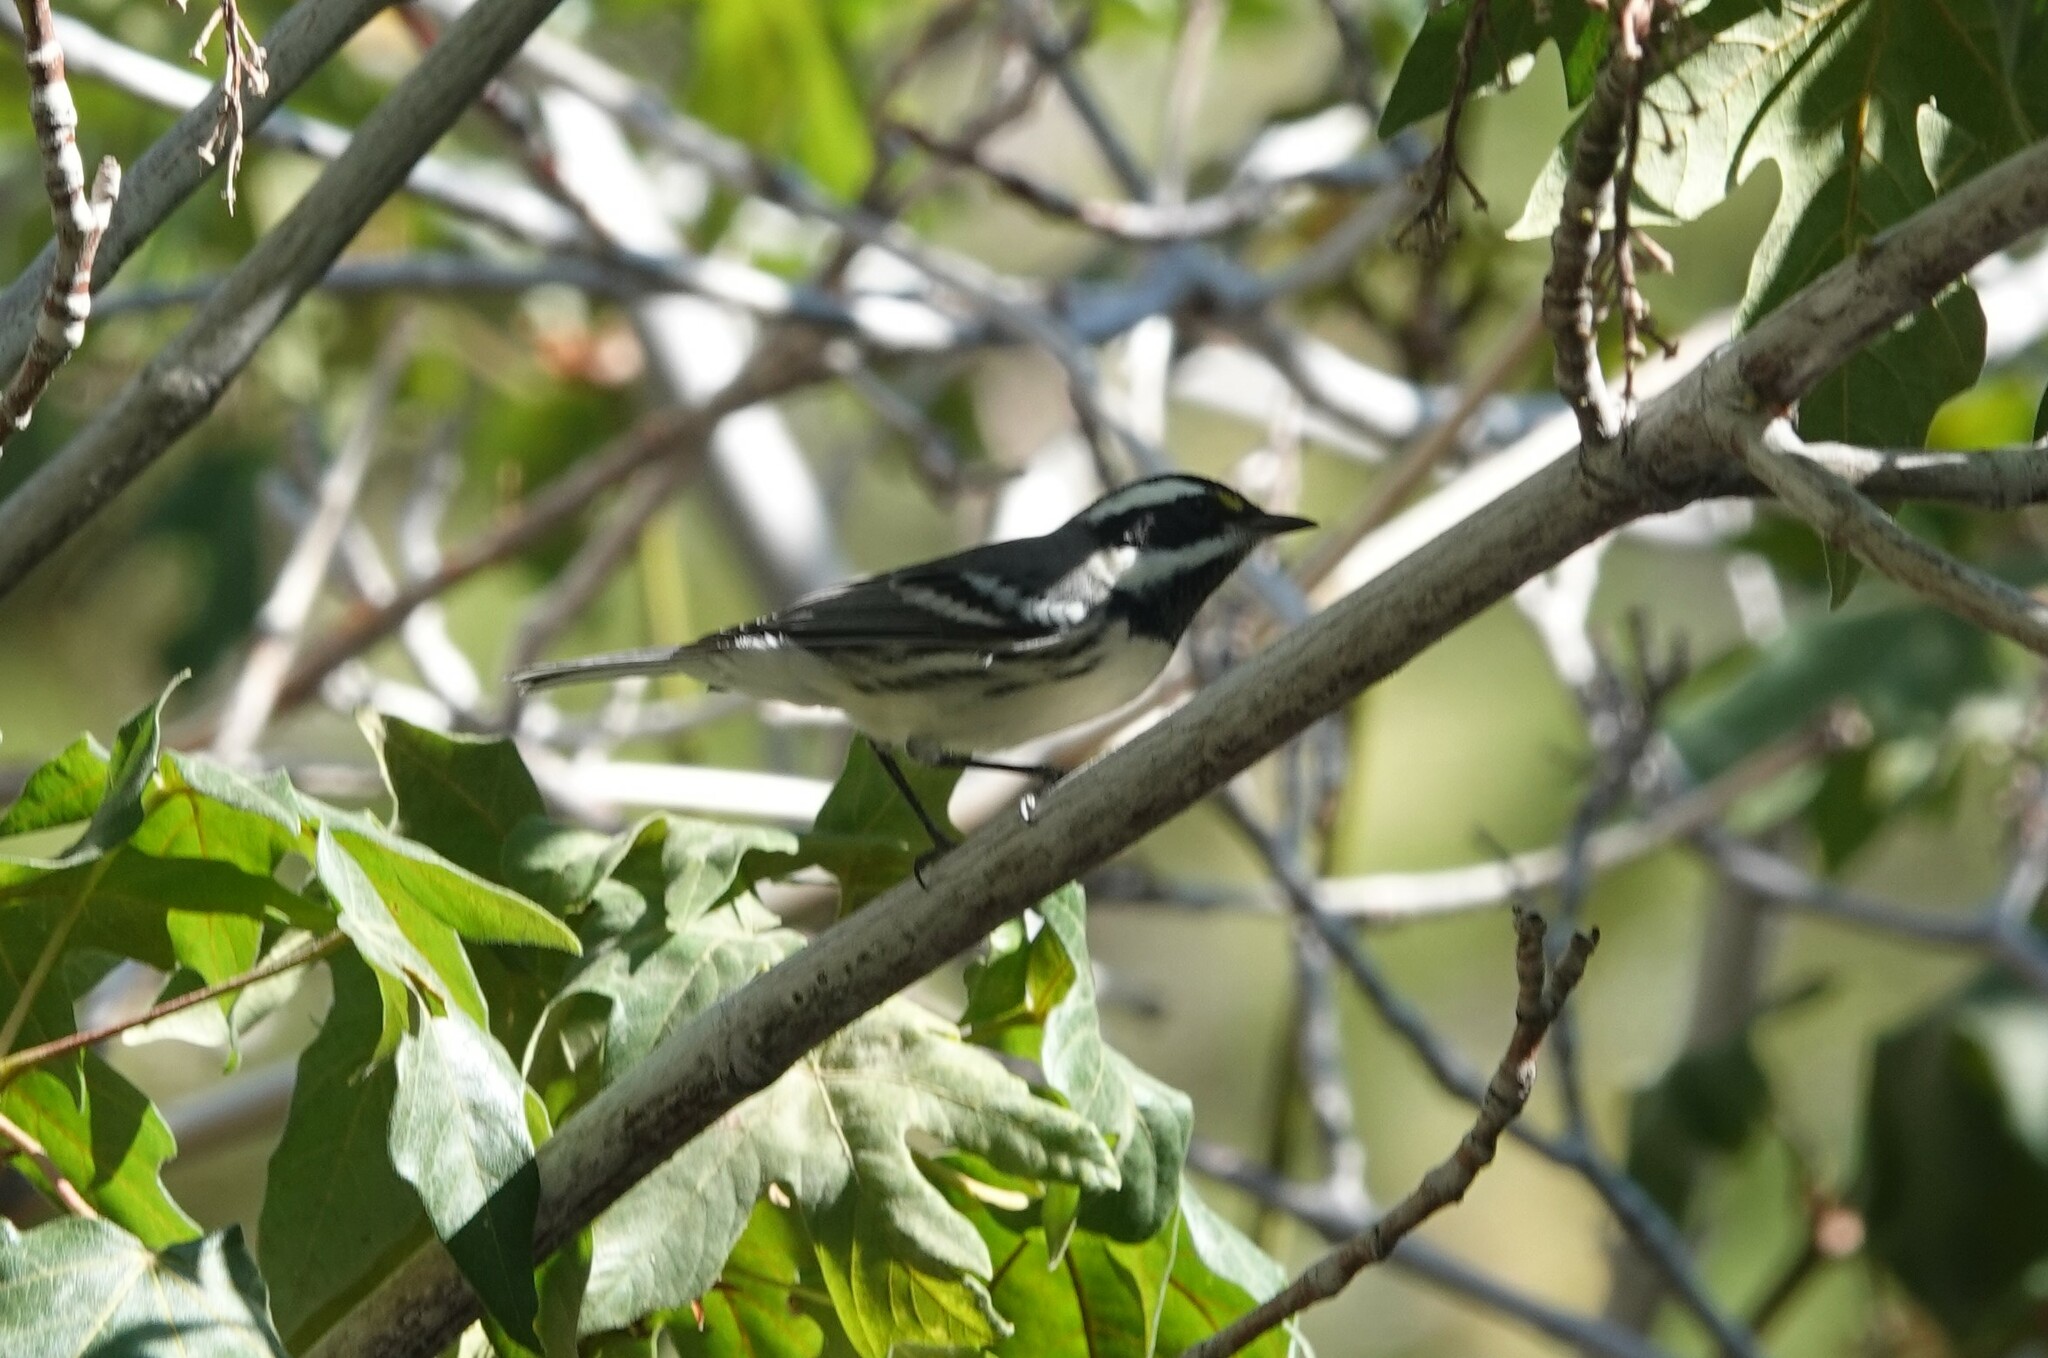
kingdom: Animalia
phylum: Chordata
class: Aves
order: Passeriformes
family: Parulidae
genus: Setophaga
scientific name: Setophaga nigrescens
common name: Black-throated gray warbler
